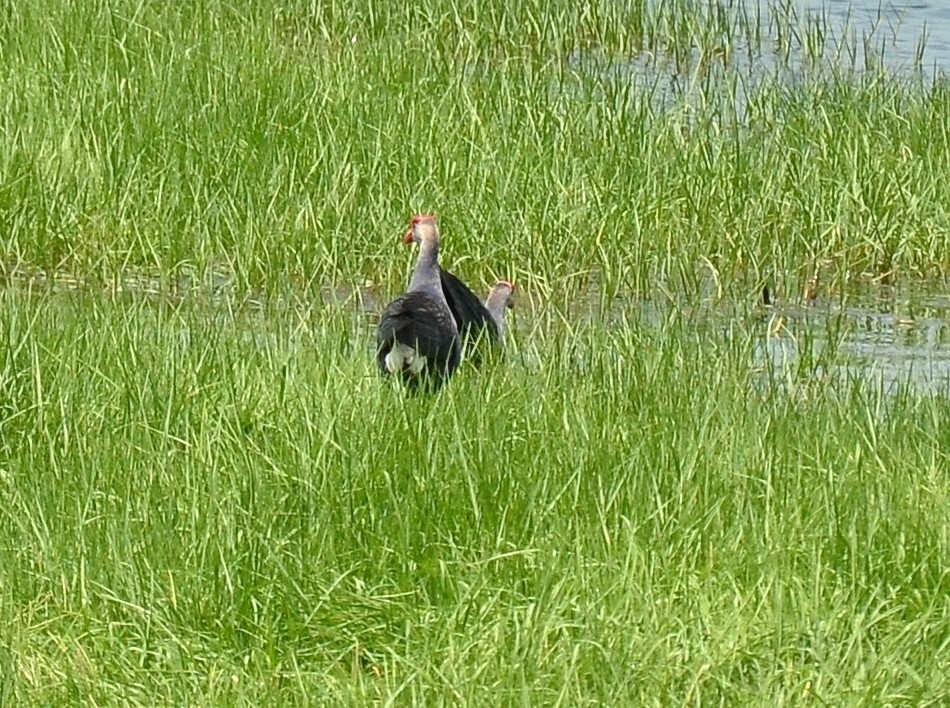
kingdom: Animalia
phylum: Chordata
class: Aves
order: Gruiformes
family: Rallidae
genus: Porphyrio
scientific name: Porphyrio porphyrio
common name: Purple swamphen
